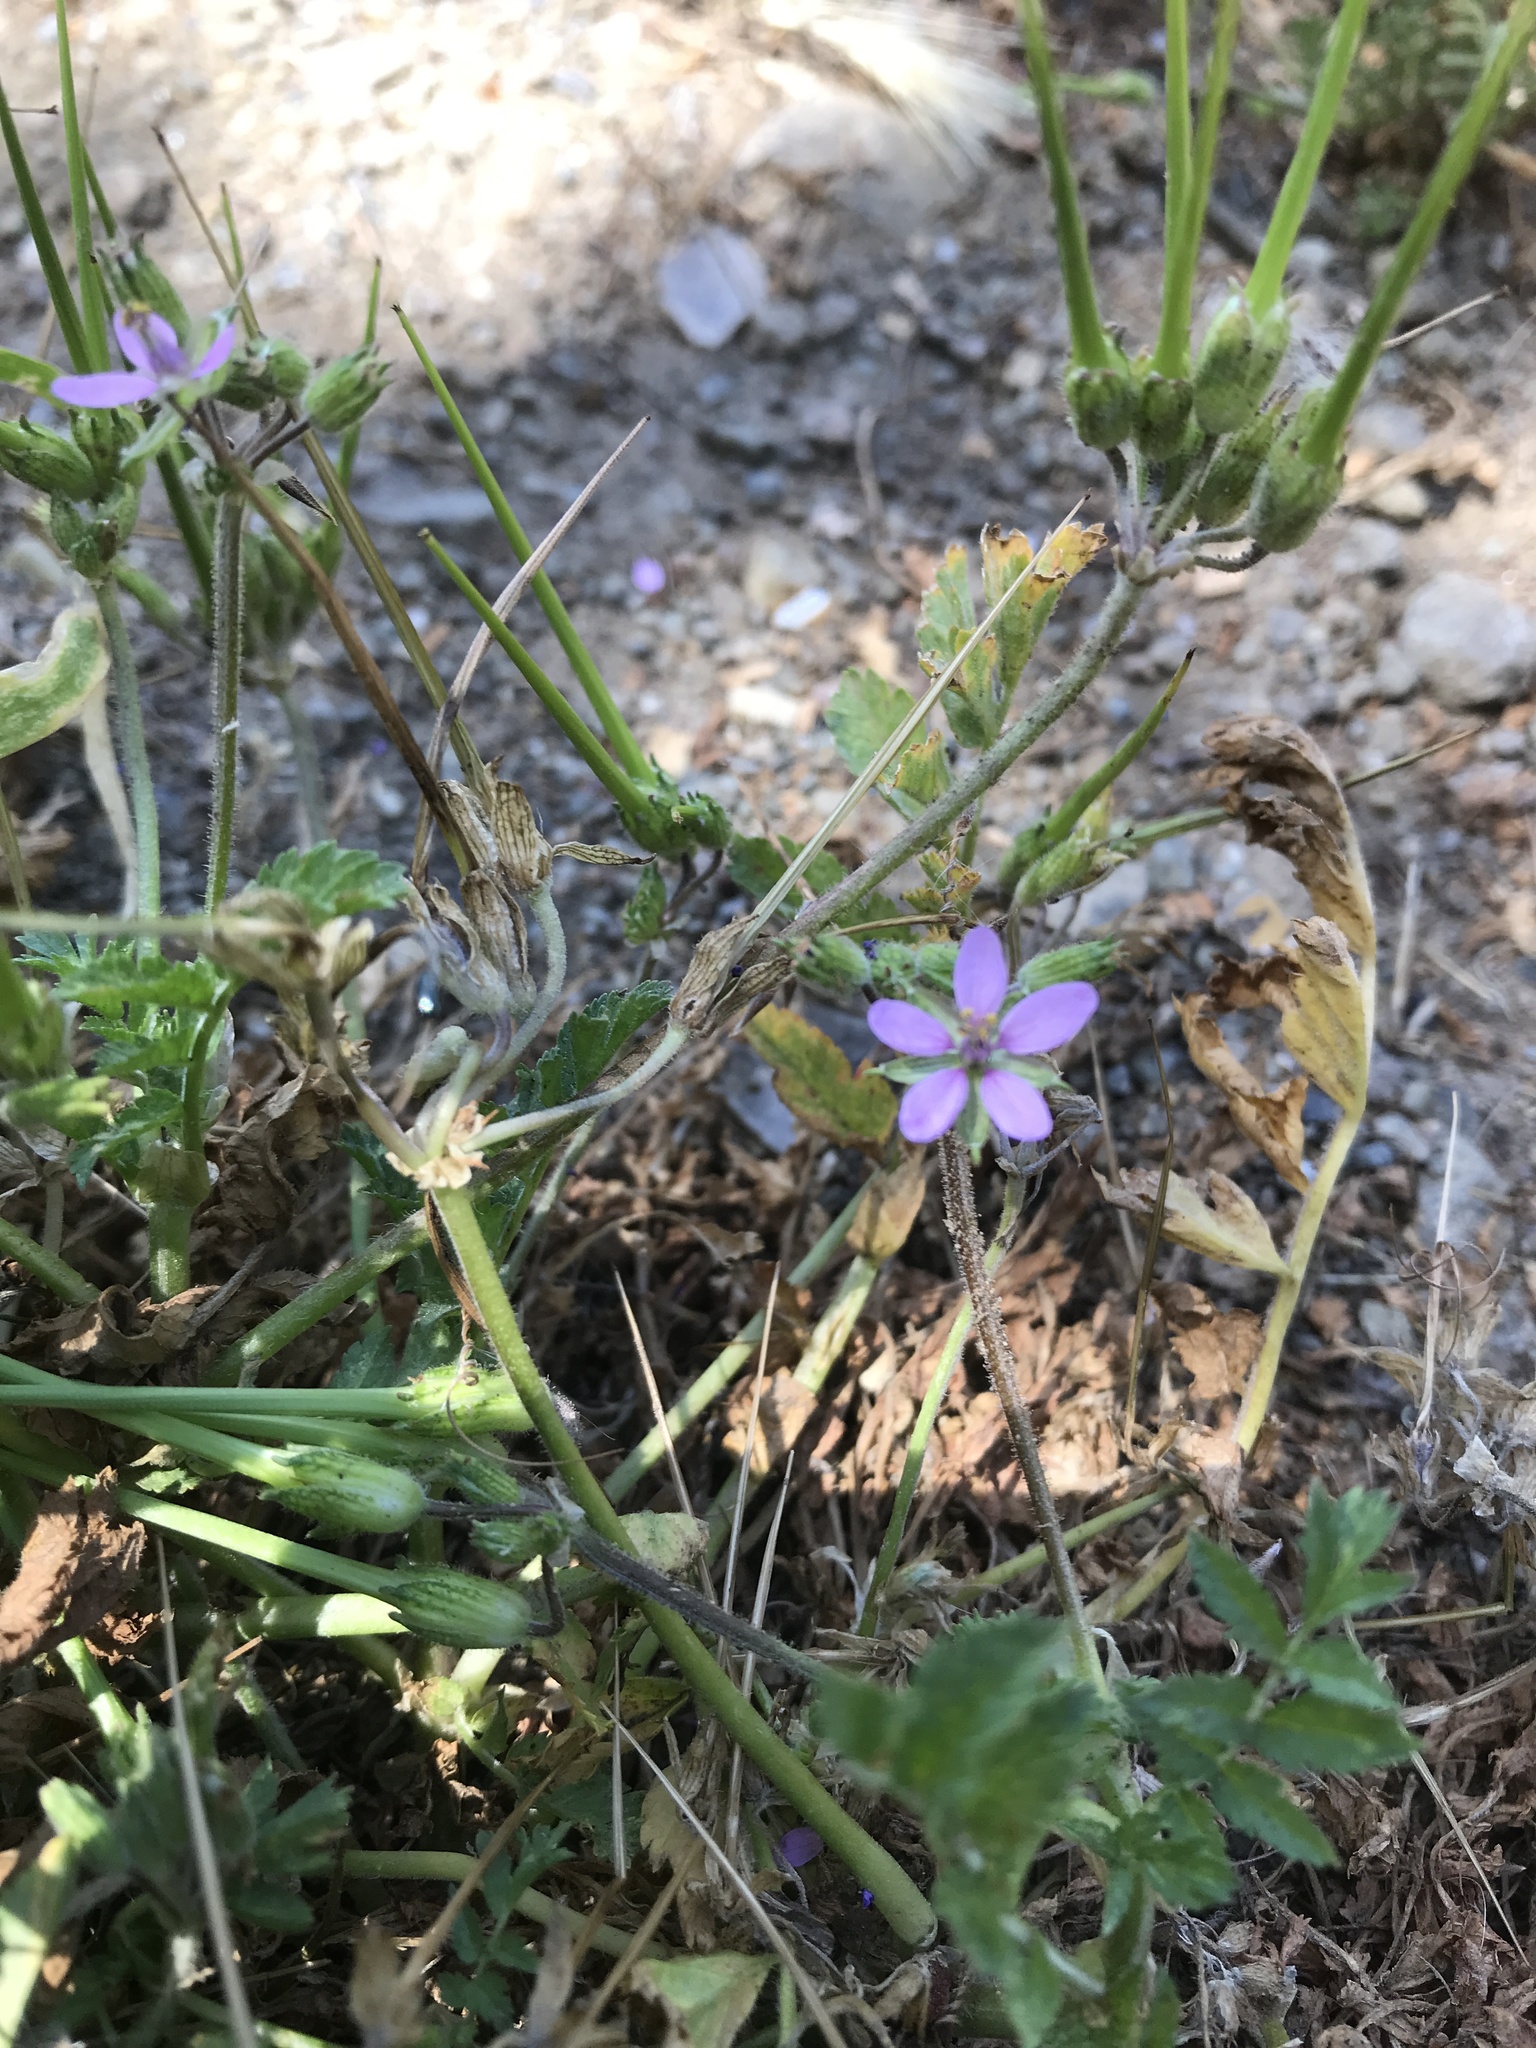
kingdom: Plantae
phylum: Tracheophyta
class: Magnoliopsida
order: Geraniales
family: Geraniaceae
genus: Erodium
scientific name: Erodium moschatum
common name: Musk stork's-bill
